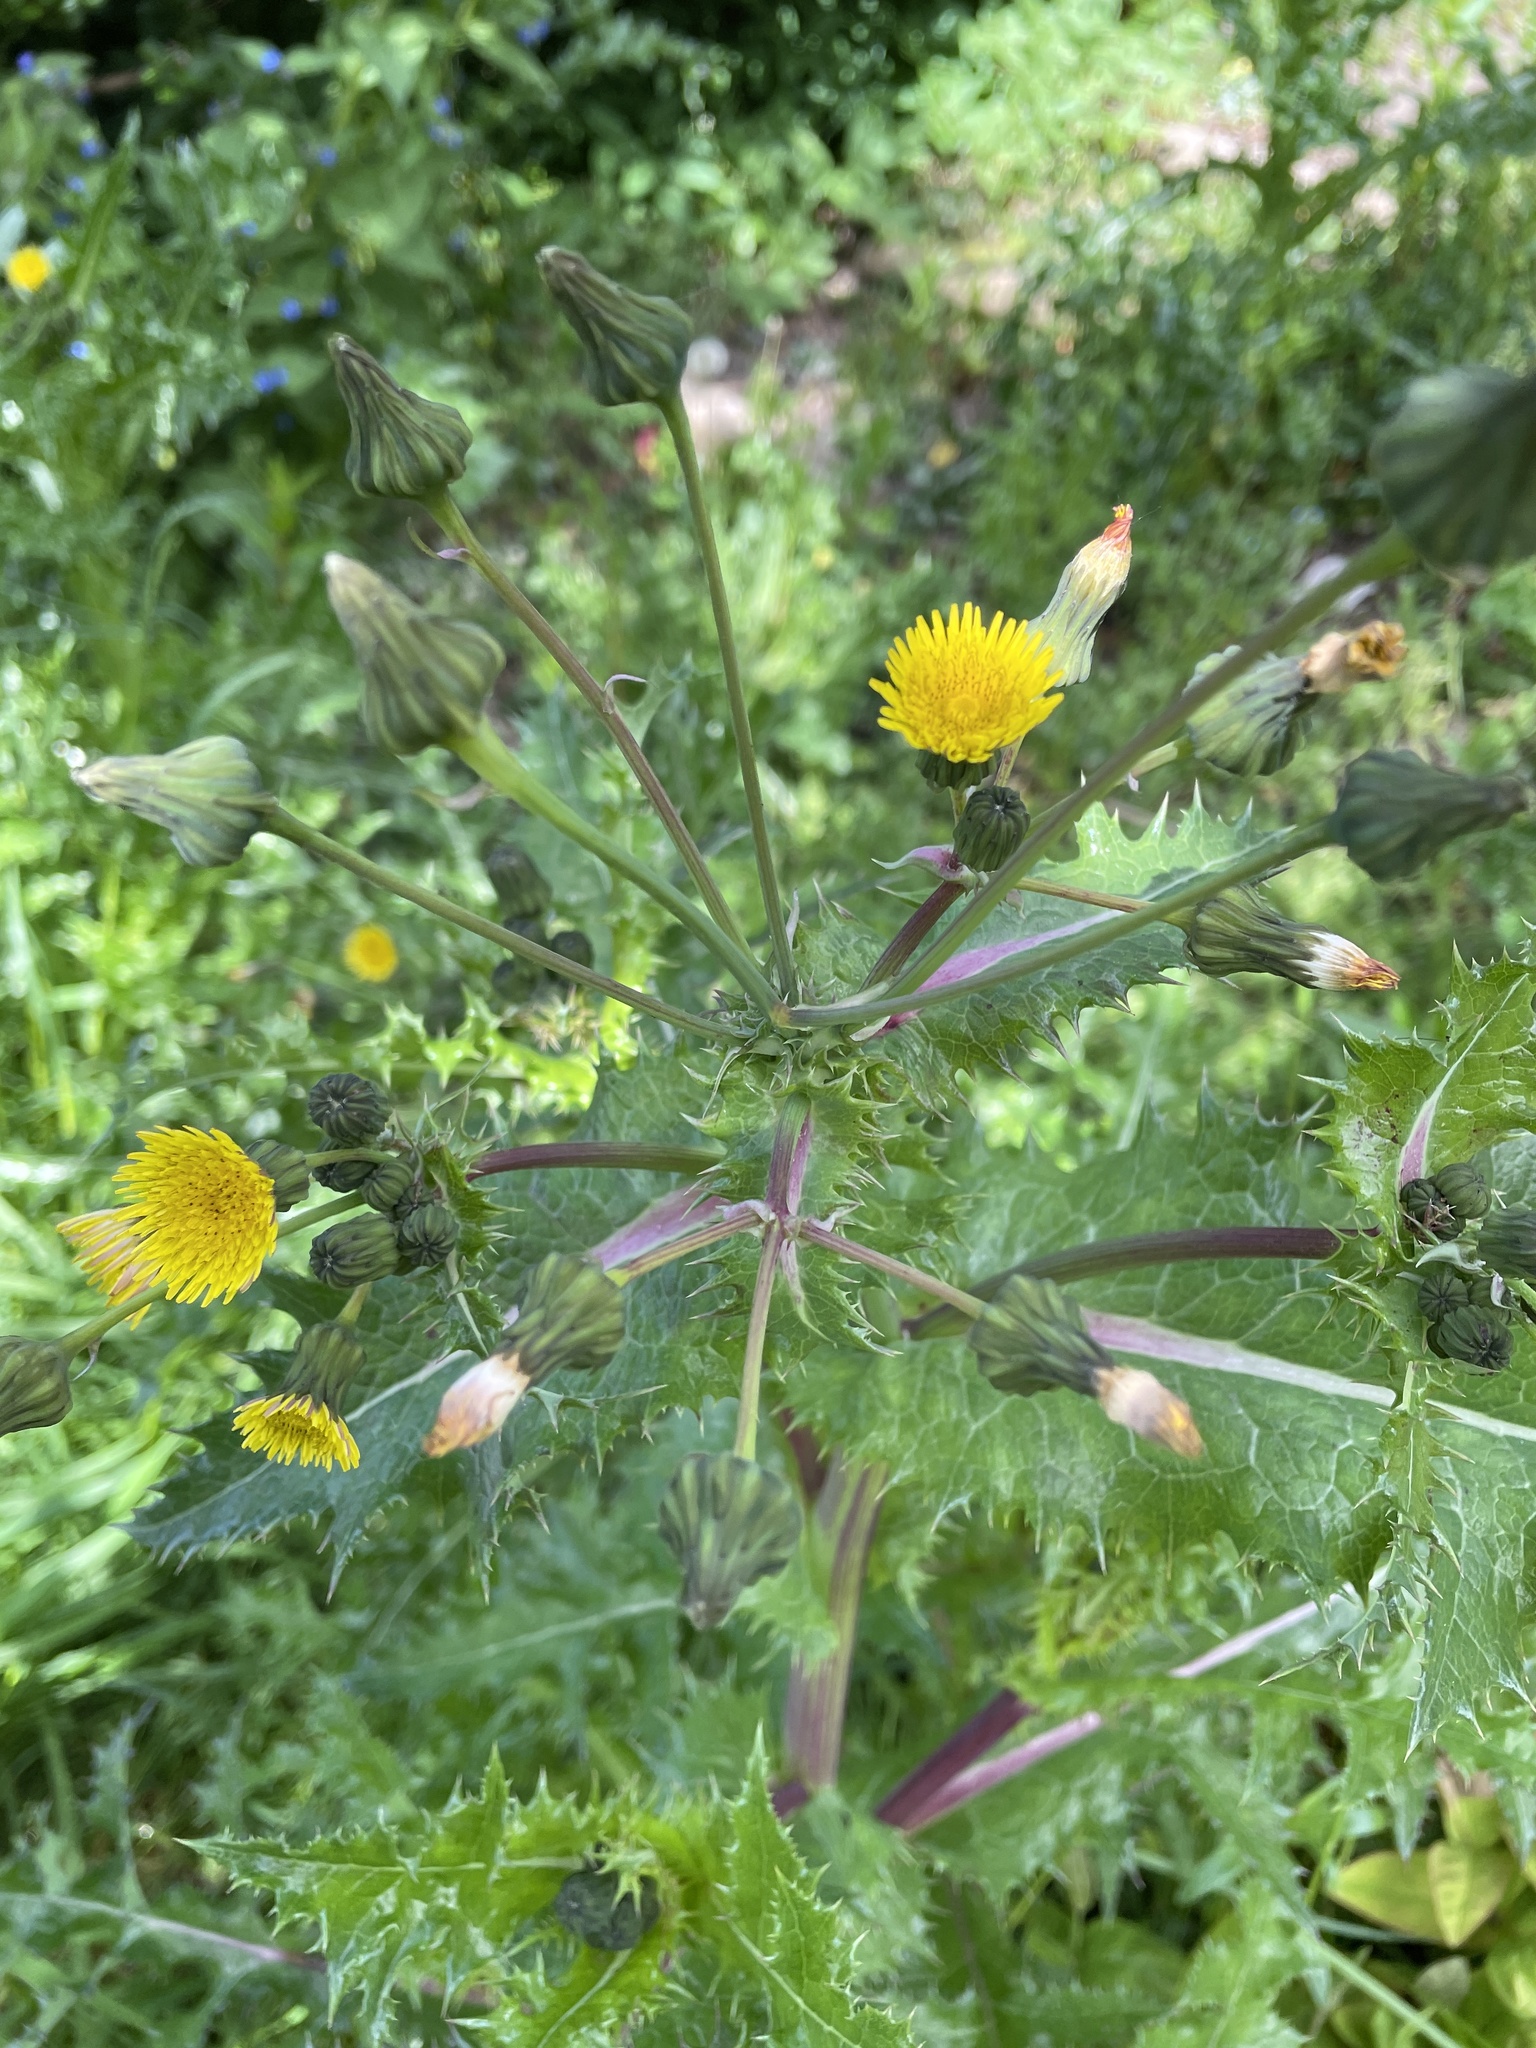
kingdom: Plantae
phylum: Tracheophyta
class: Magnoliopsida
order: Asterales
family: Asteraceae
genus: Sonchus
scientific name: Sonchus asper
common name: Prickly sow-thistle
